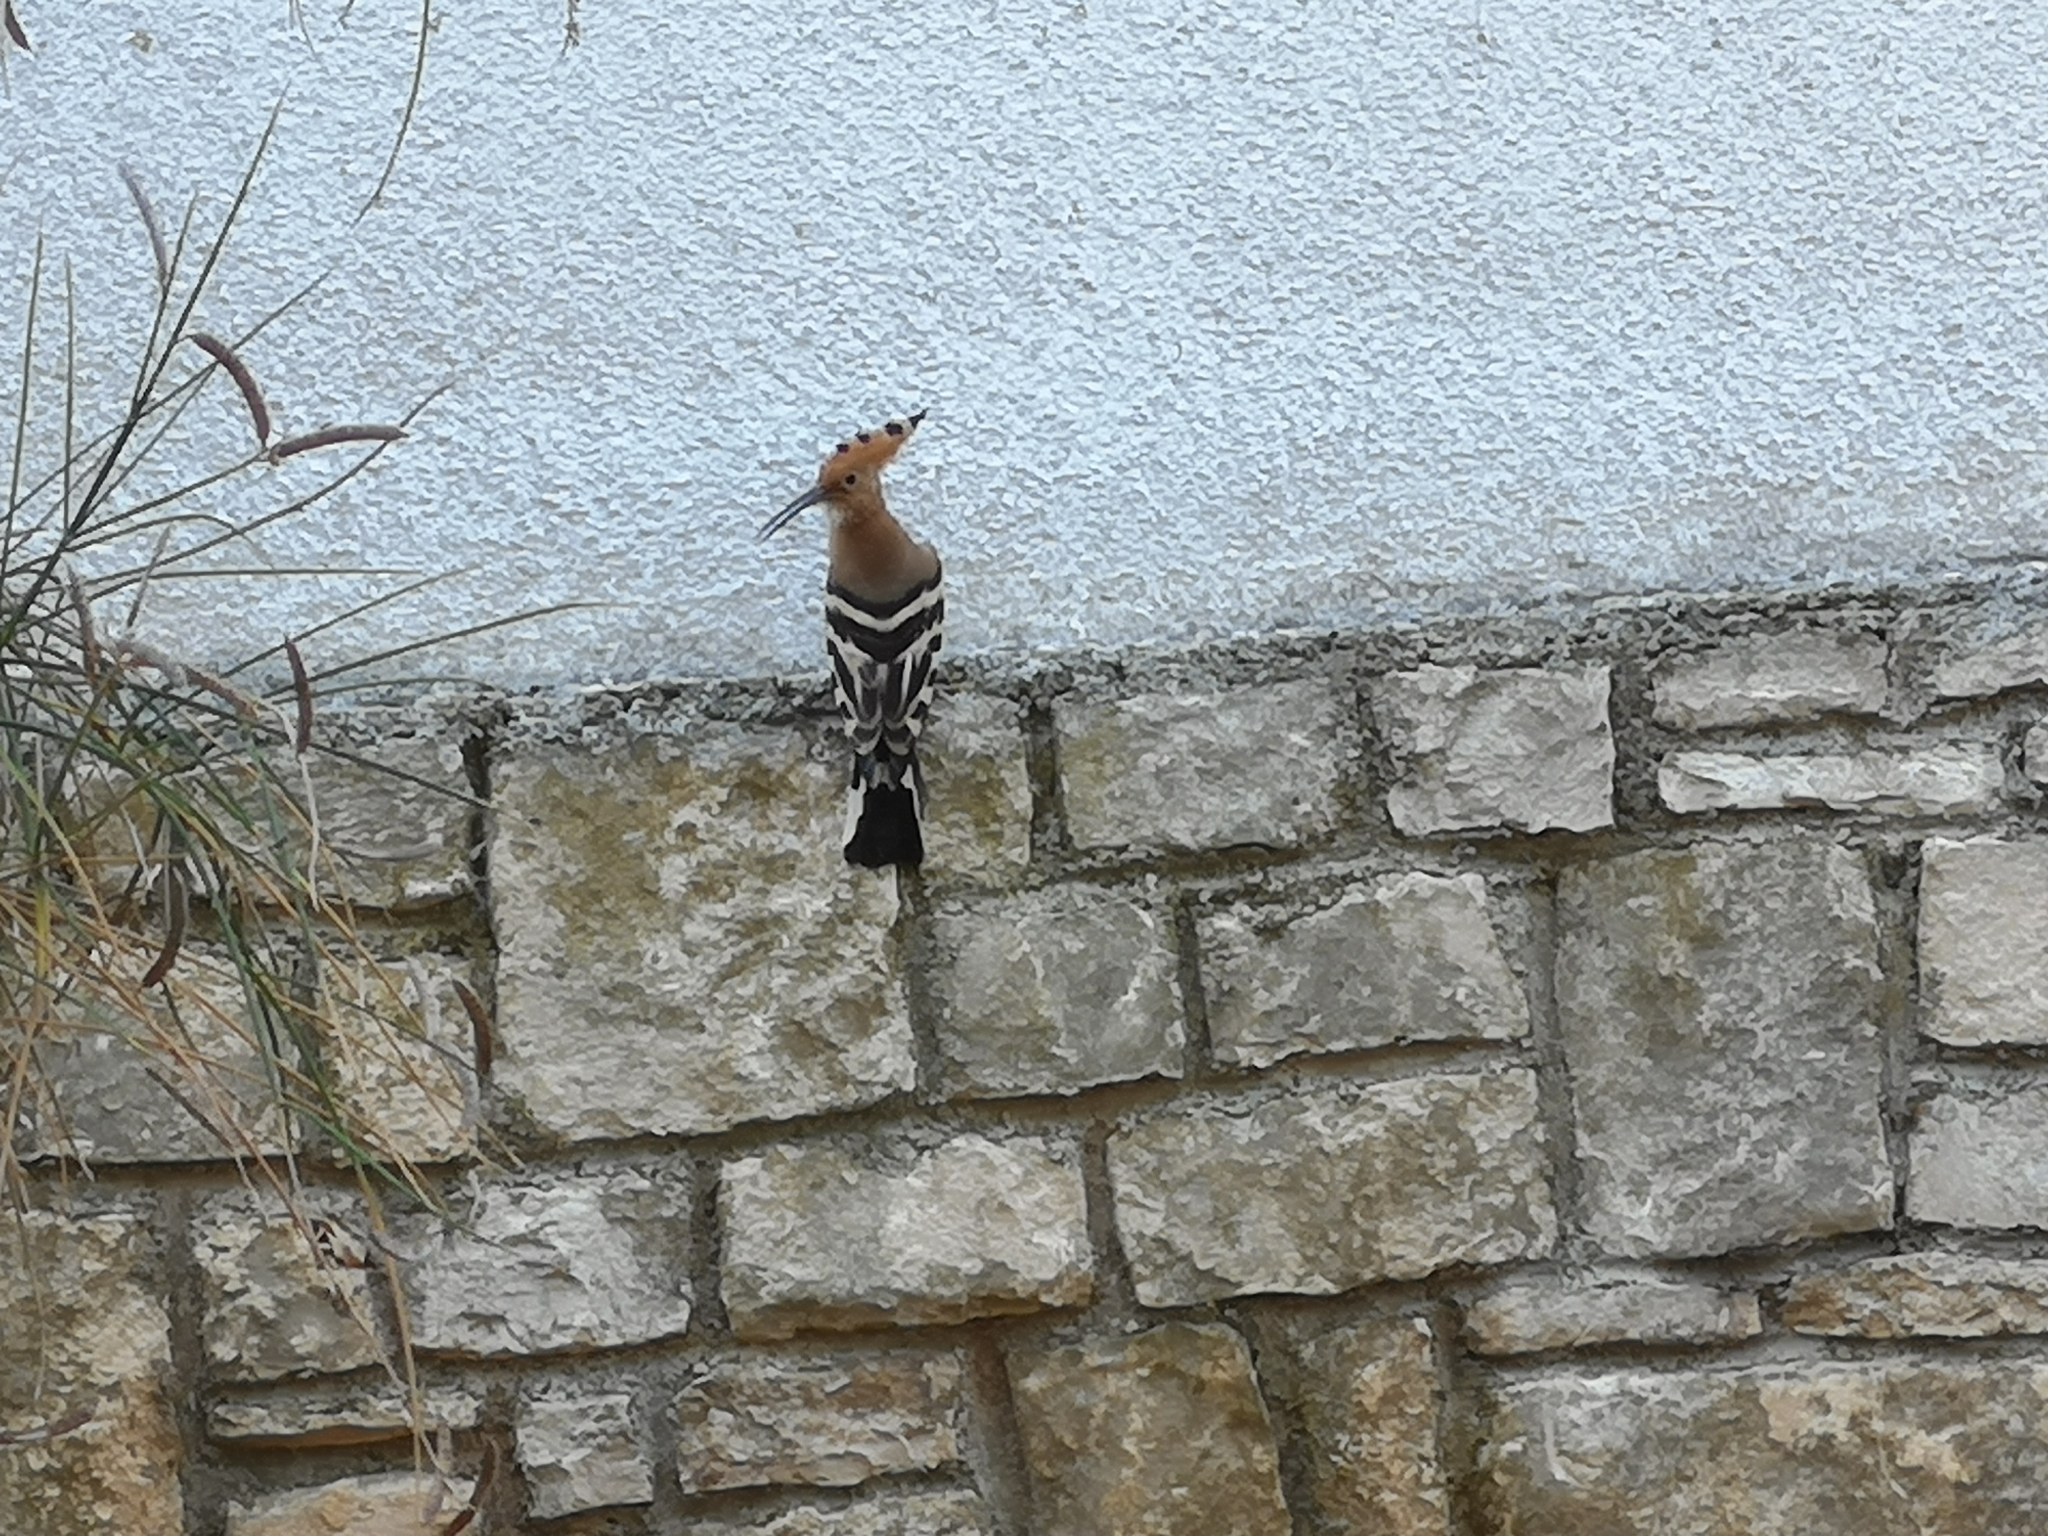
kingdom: Animalia
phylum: Chordata
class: Aves
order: Bucerotiformes
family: Upupidae
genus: Upupa
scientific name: Upupa epops
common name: Eurasian hoopoe
